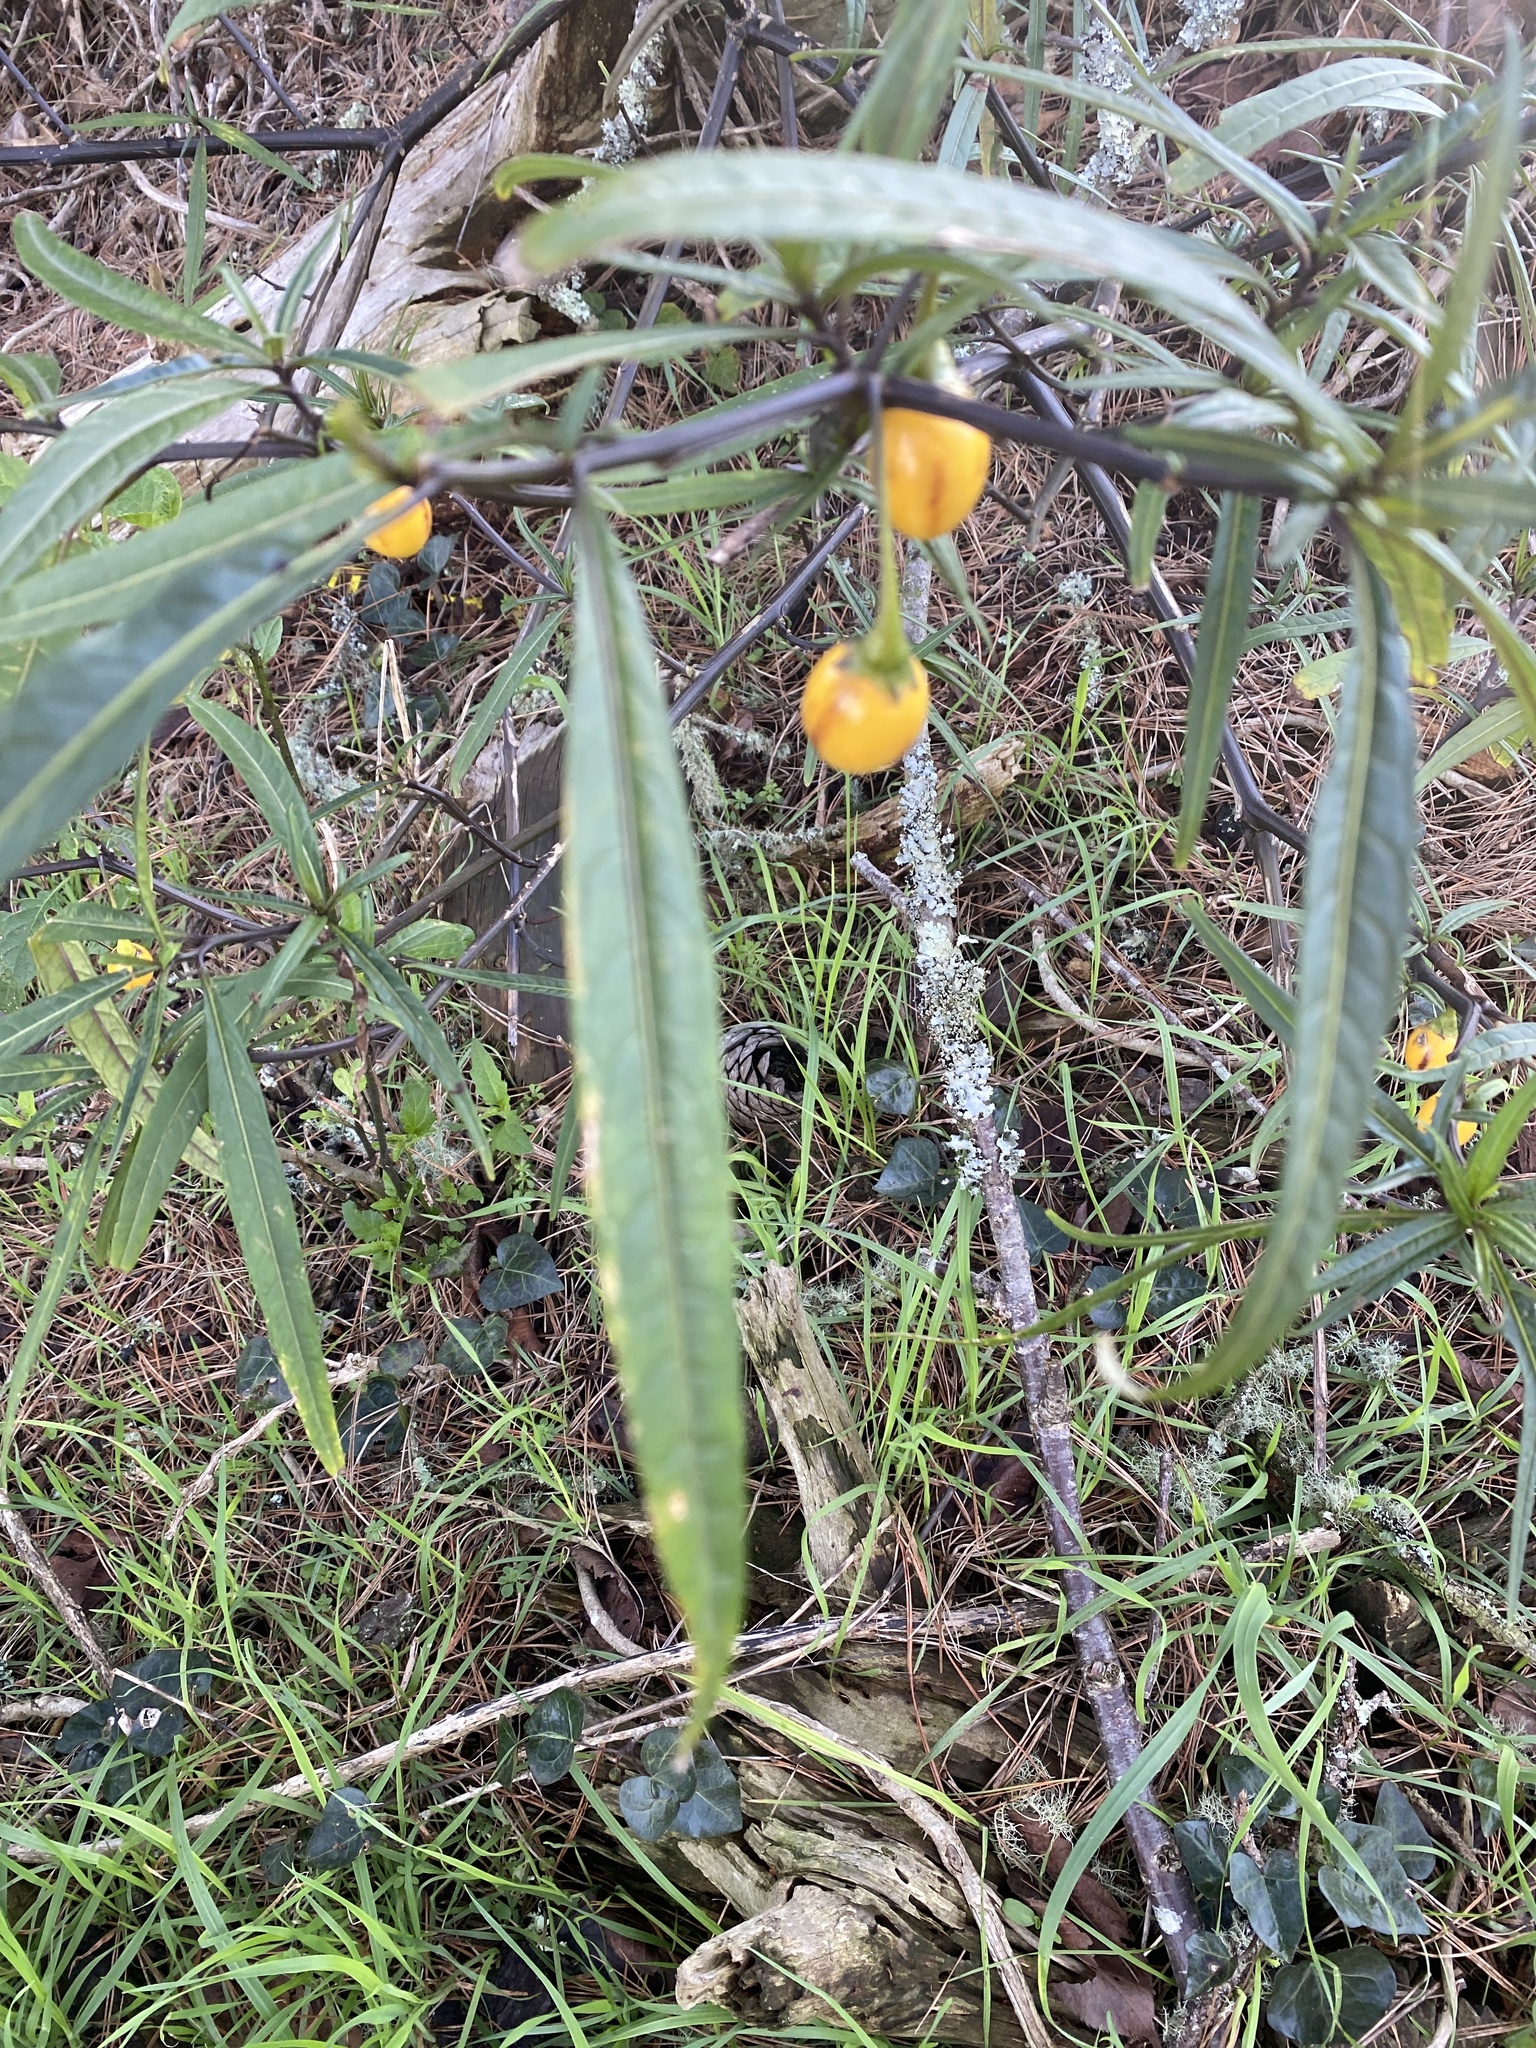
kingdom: Plantae
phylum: Tracheophyta
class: Magnoliopsida
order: Solanales
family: Solanaceae
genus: Solanum
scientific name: Solanum laciniatum
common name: Kangaroo-apple
